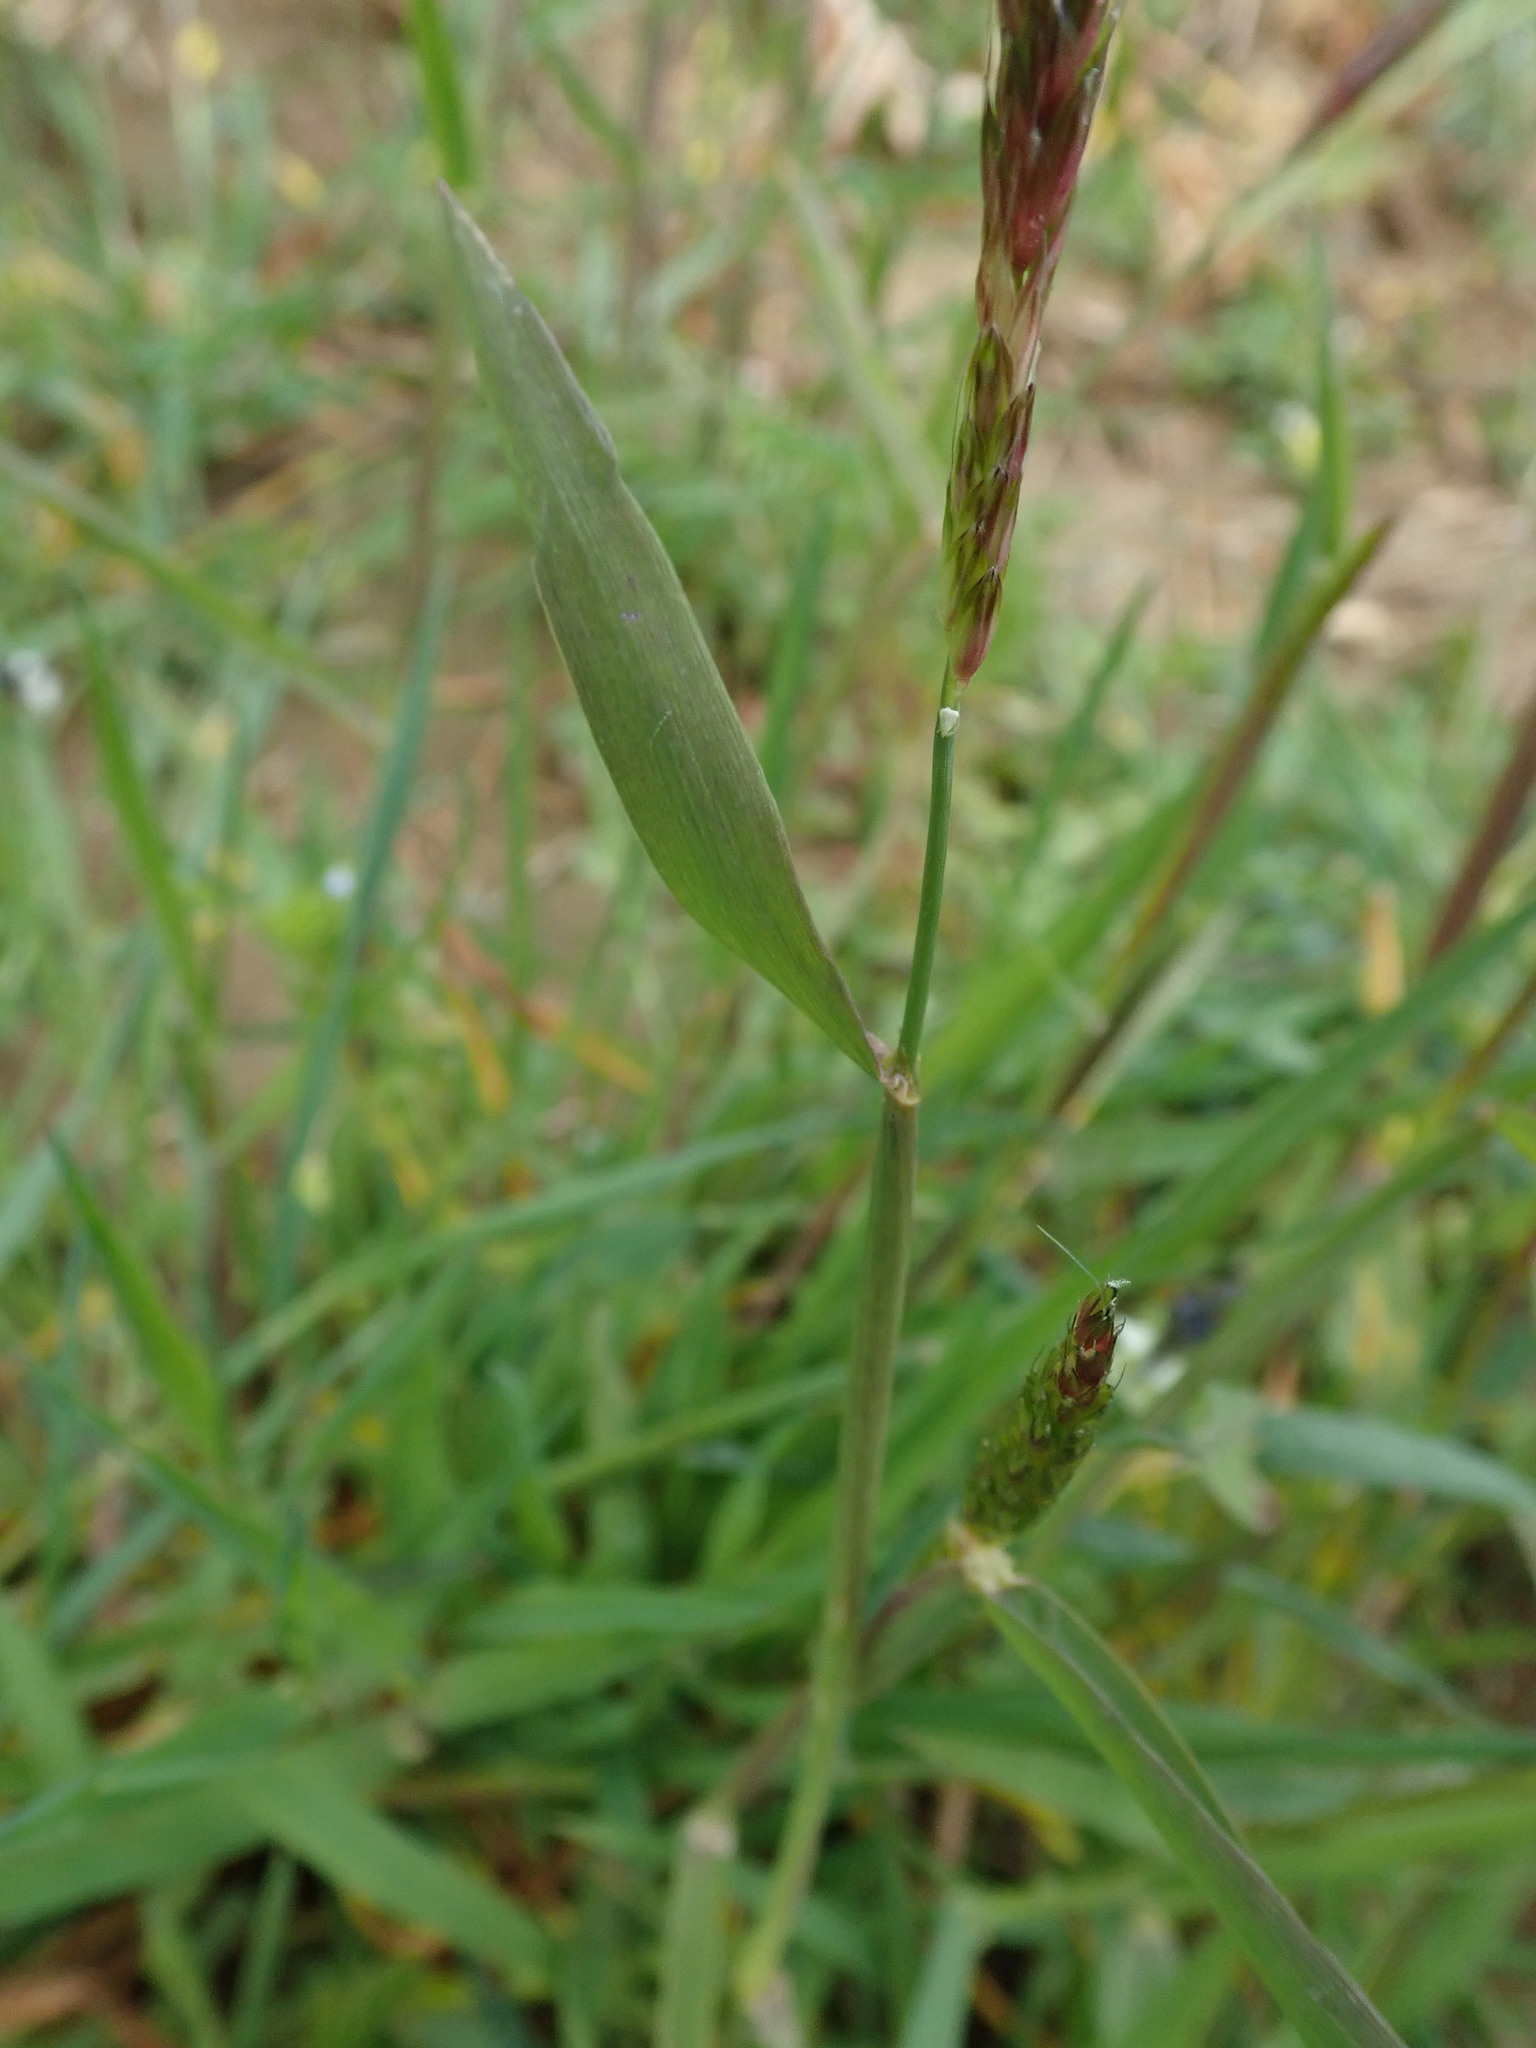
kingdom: Plantae
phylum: Tracheophyta
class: Liliopsida
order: Poales
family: Poaceae
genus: Alopecurus
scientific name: Alopecurus myosuroides
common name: Black-grass
